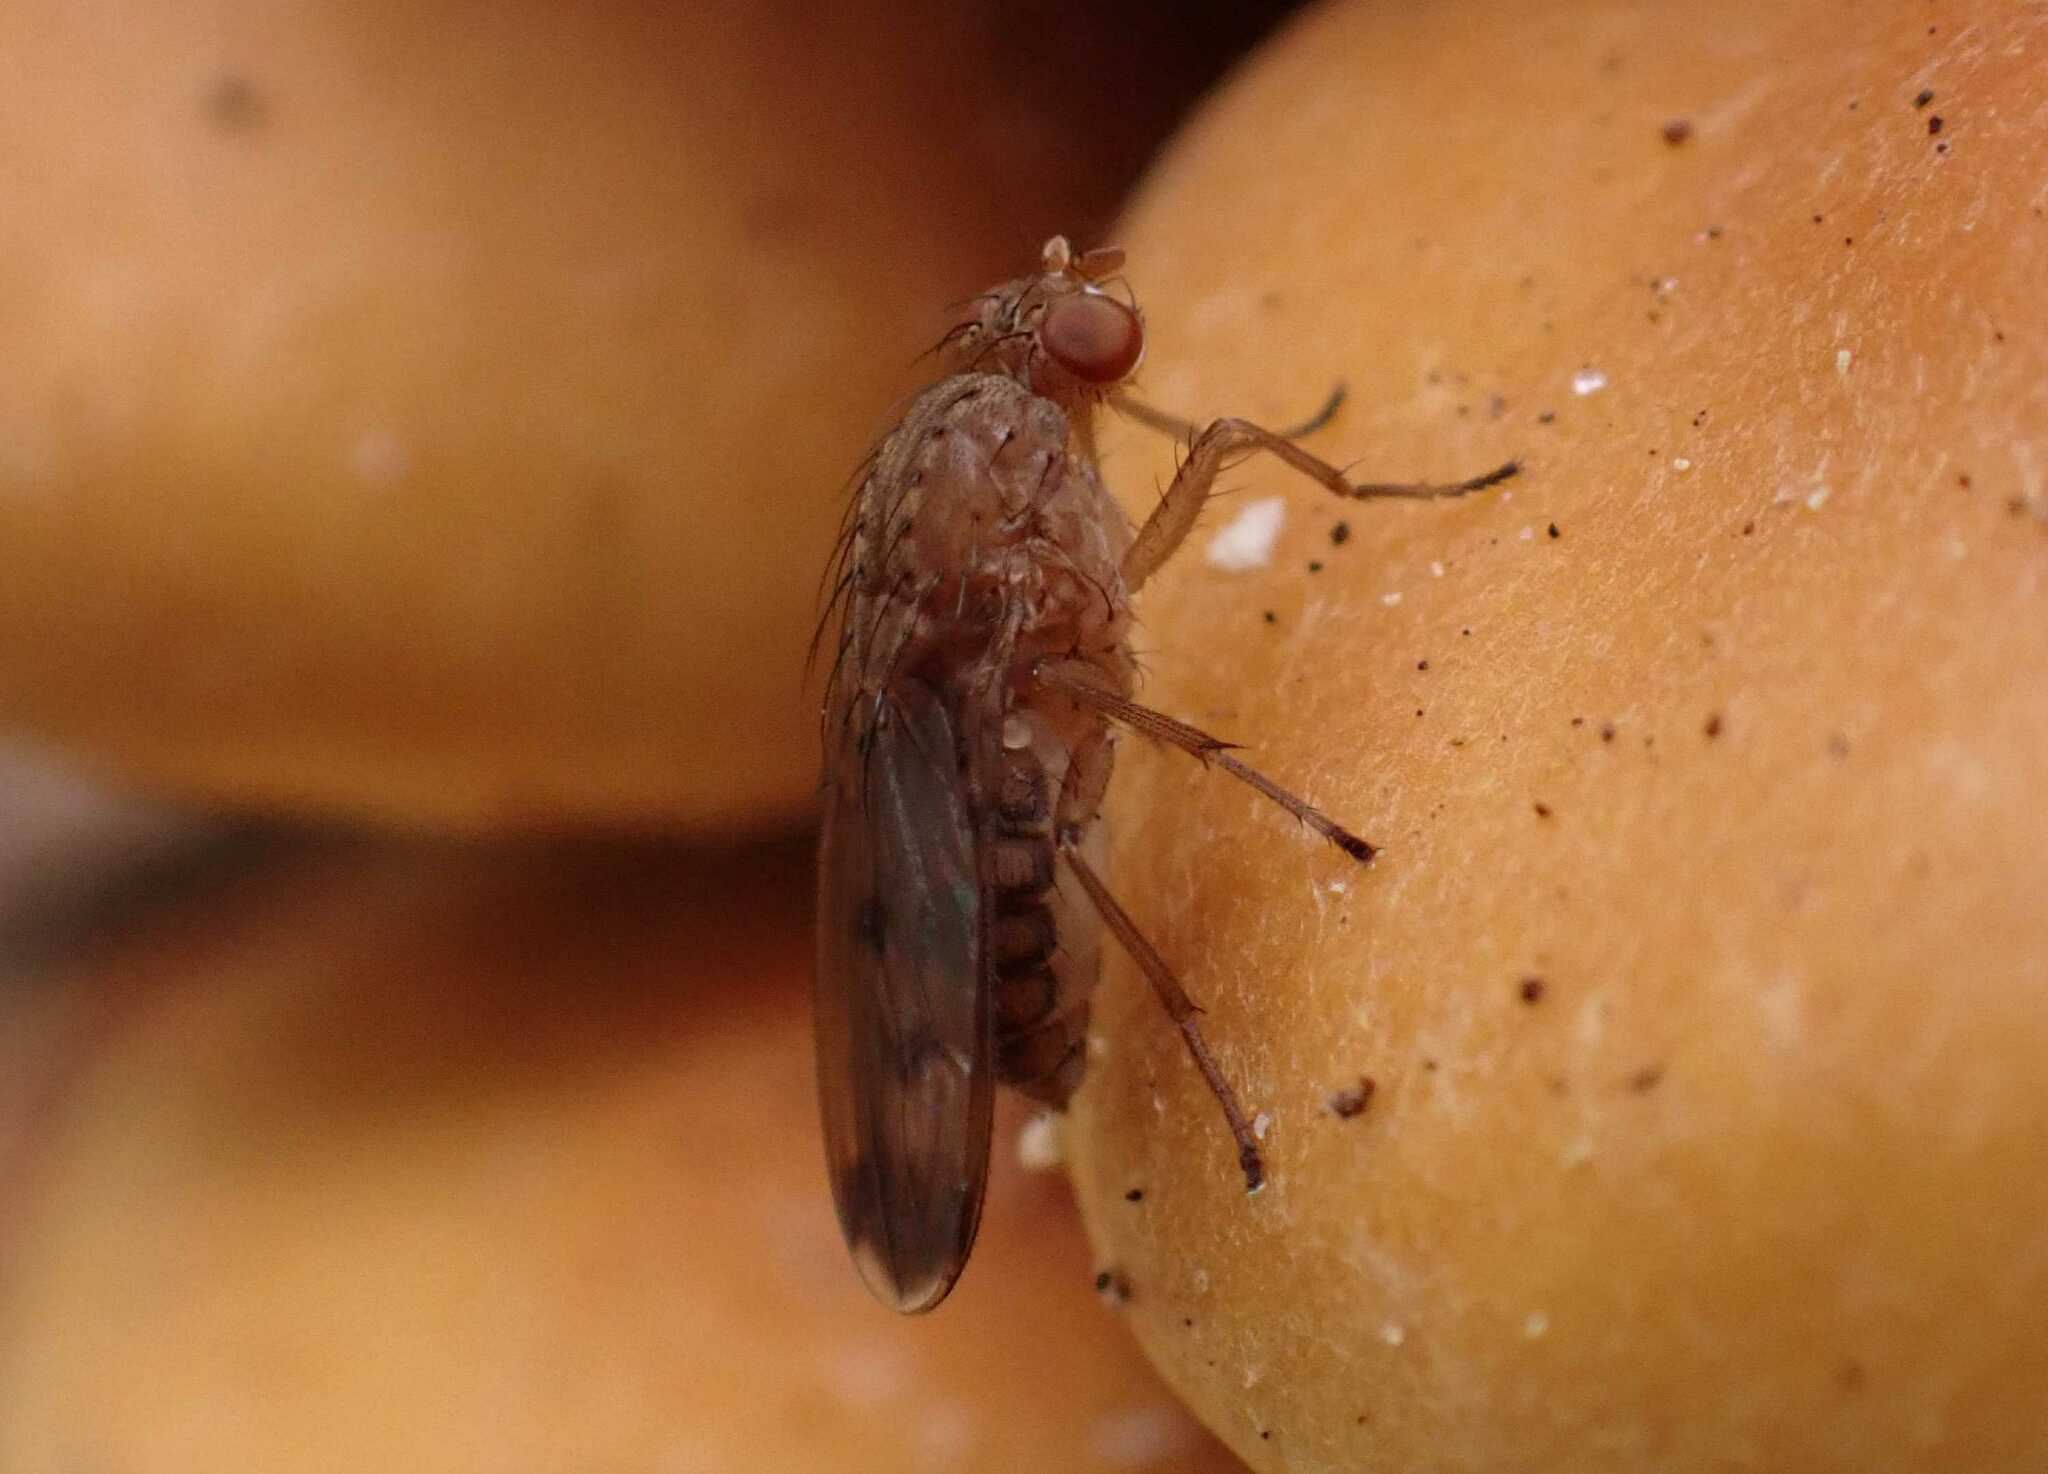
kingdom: Animalia
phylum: Arthropoda
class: Insecta
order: Diptera
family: Heleomyzidae
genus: Suillia
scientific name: Suillia variegata
